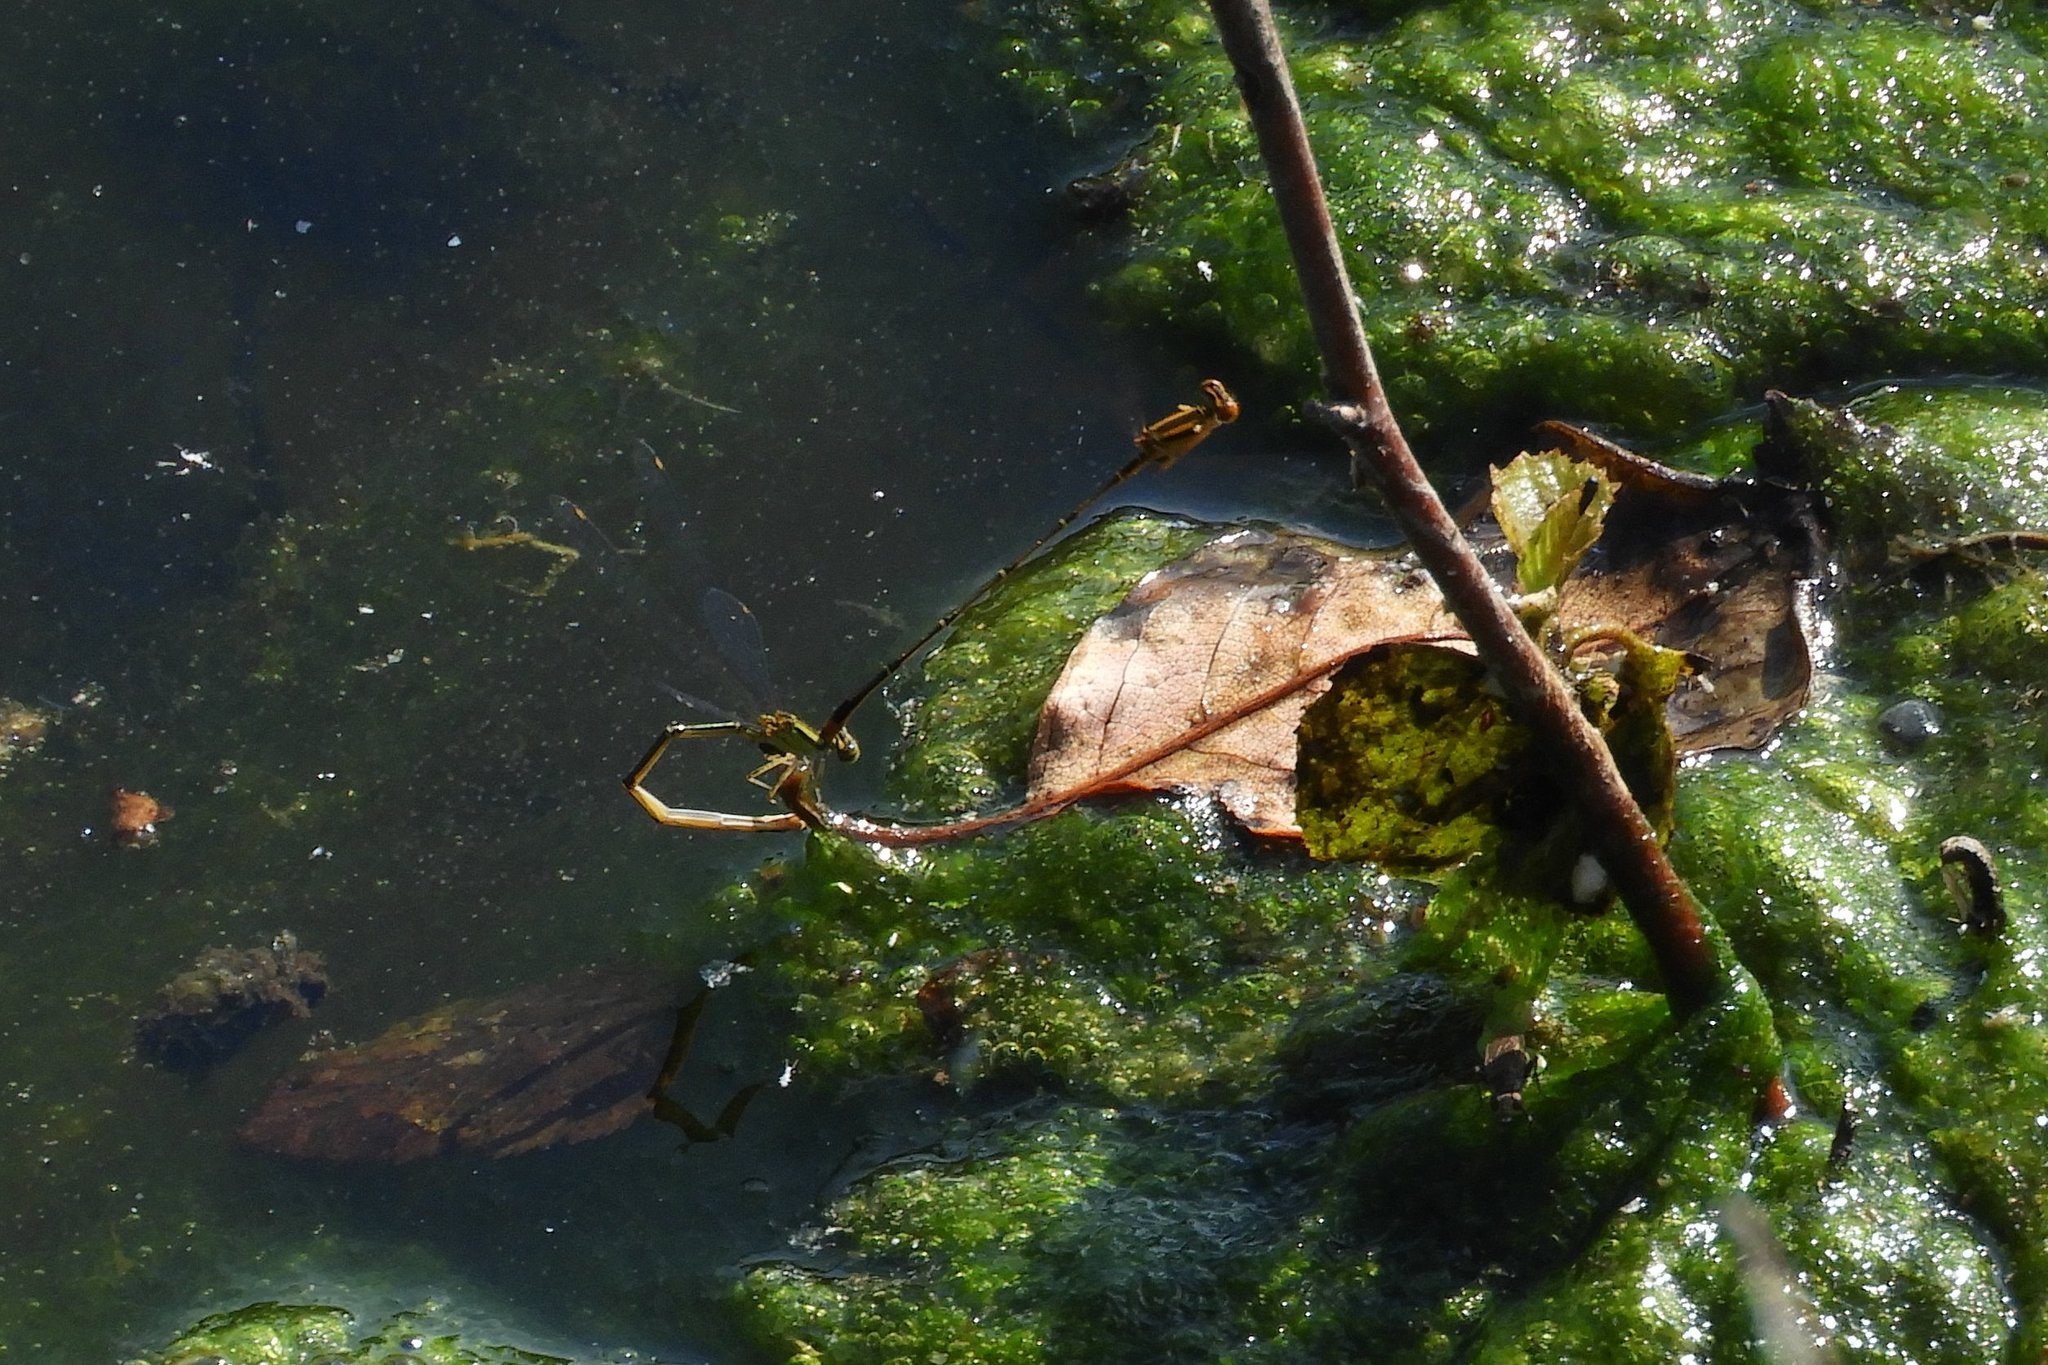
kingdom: Animalia
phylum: Arthropoda
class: Insecta
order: Odonata
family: Coenagrionidae
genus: Enallagma
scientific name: Enallagma signatum
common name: Orange bluet
